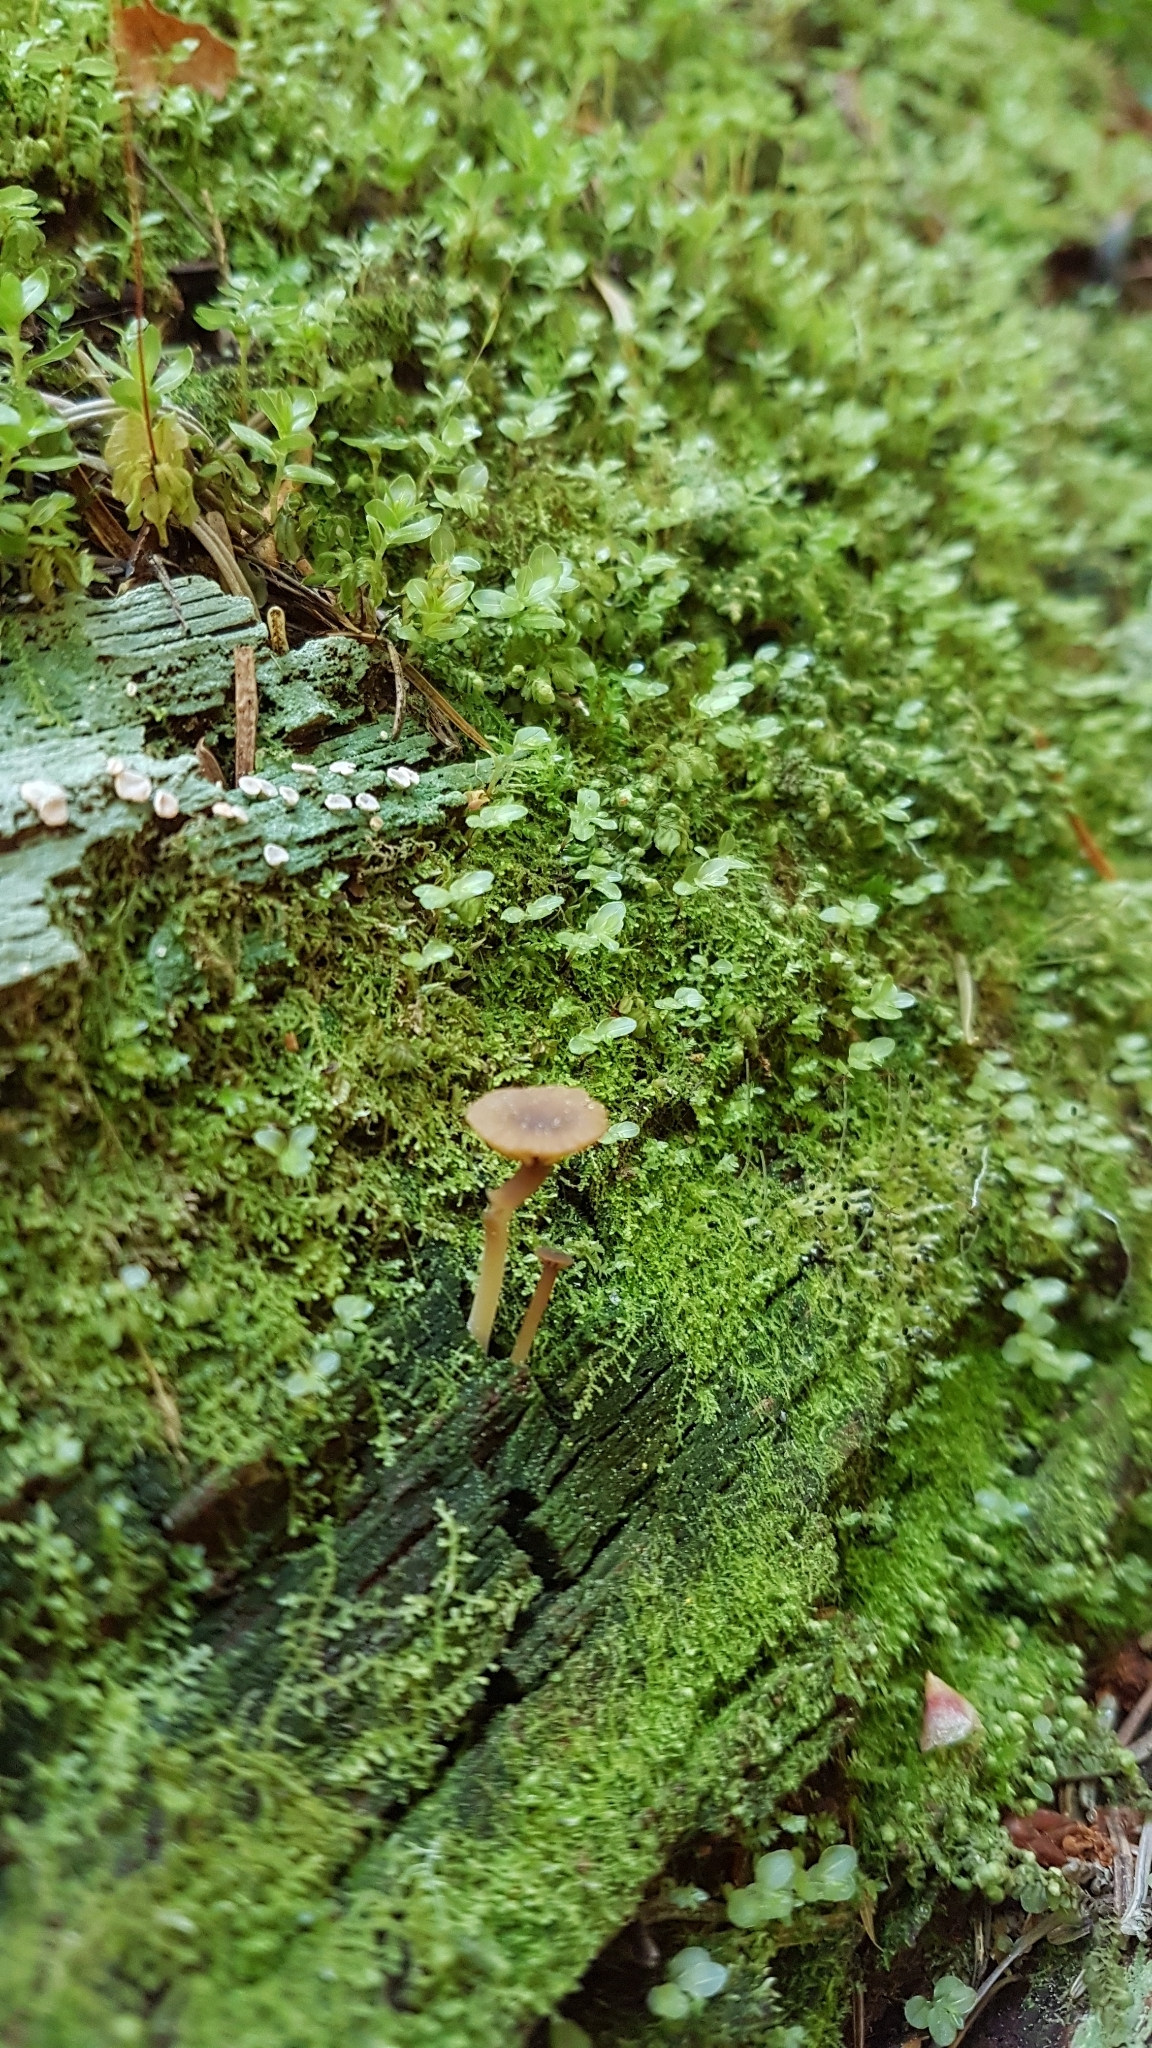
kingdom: Fungi
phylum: Basidiomycota
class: Agaricomycetes
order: Agaricales
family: Hygrophoraceae
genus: Lichenomphalia
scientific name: Lichenomphalia
